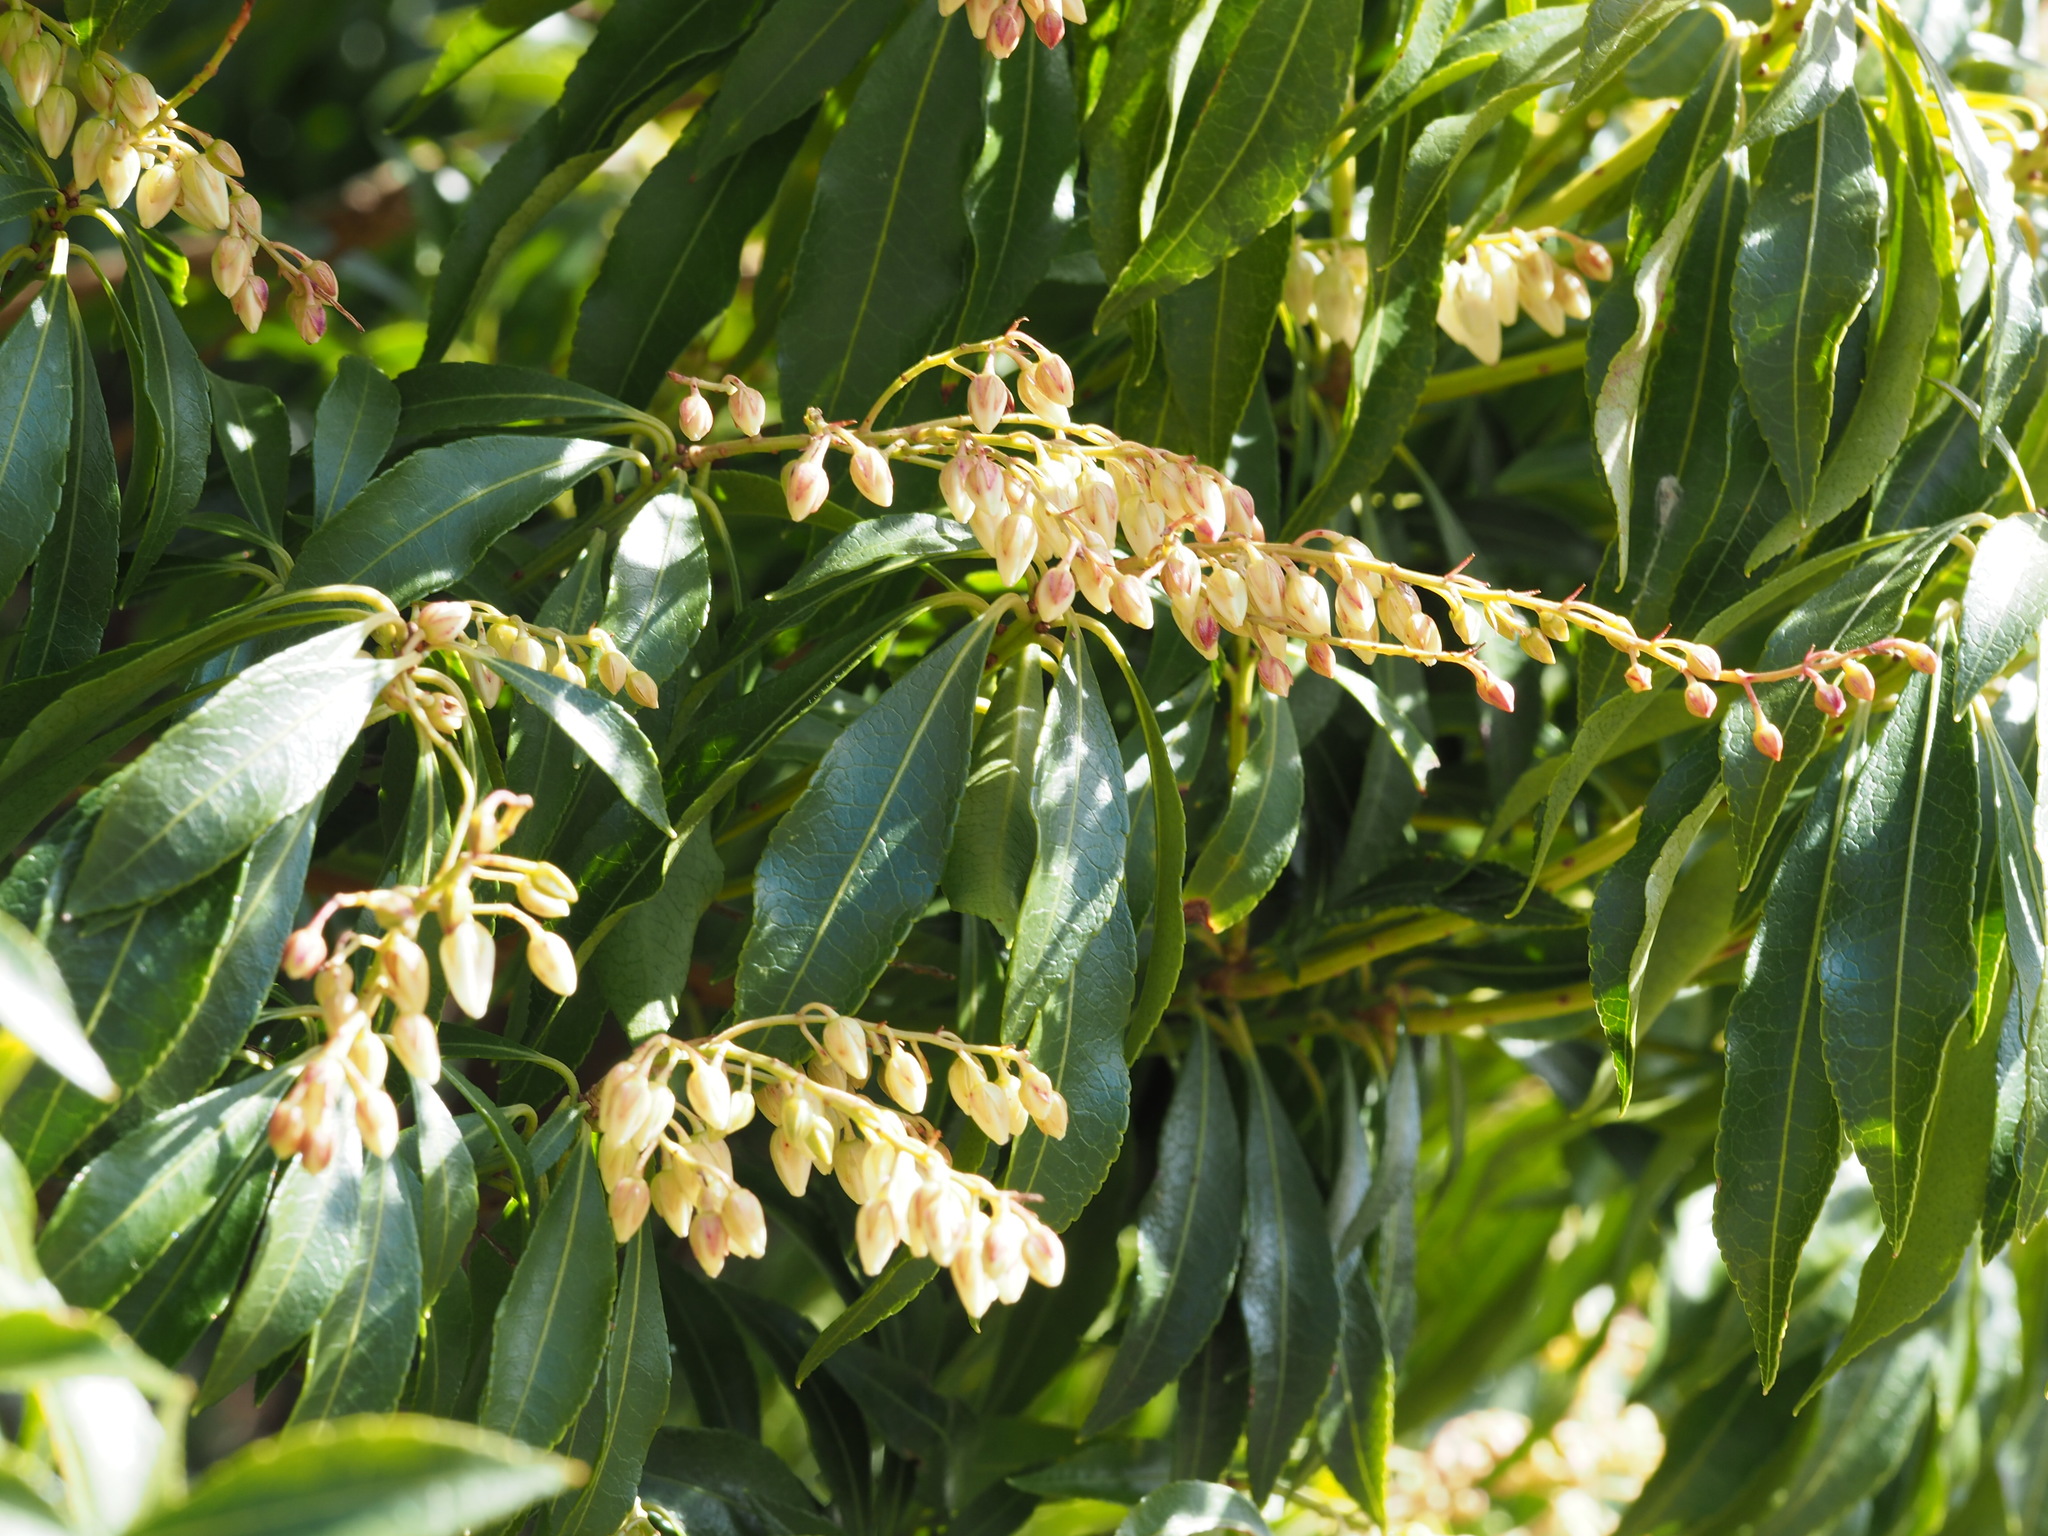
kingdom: Plantae
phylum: Tracheophyta
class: Magnoliopsida
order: Ericales
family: Ericaceae
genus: Pieris
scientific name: Pieris japonica
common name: Japanese pieris
